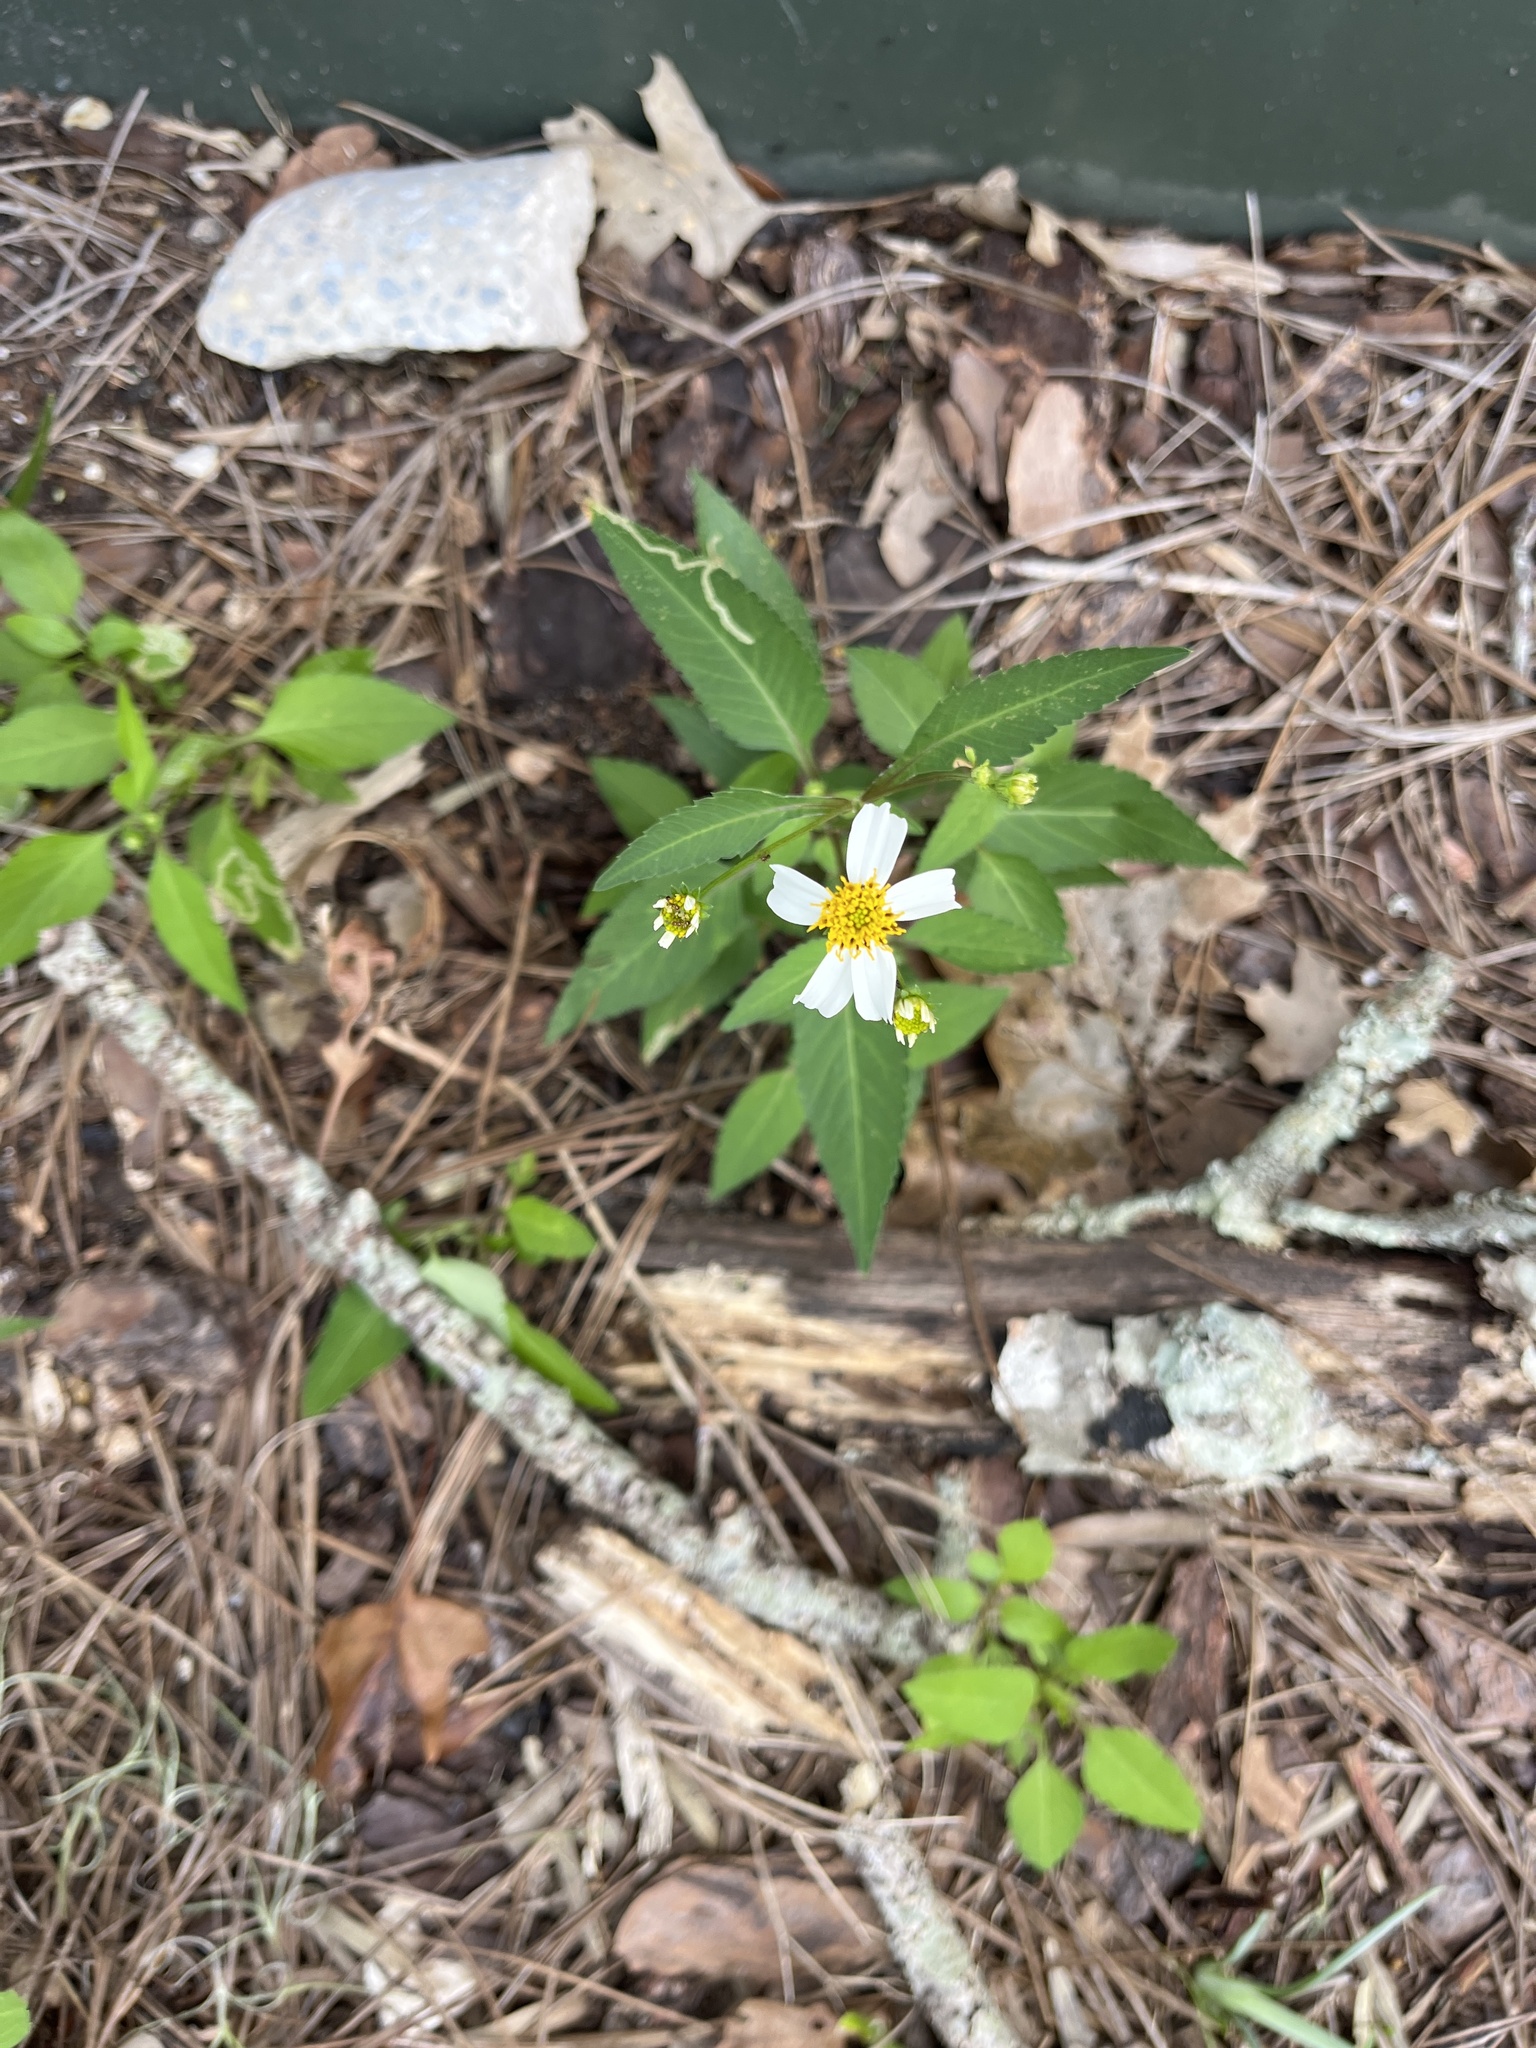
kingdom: Plantae
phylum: Tracheophyta
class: Magnoliopsida
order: Asterales
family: Asteraceae
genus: Bidens
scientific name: Bidens alba
